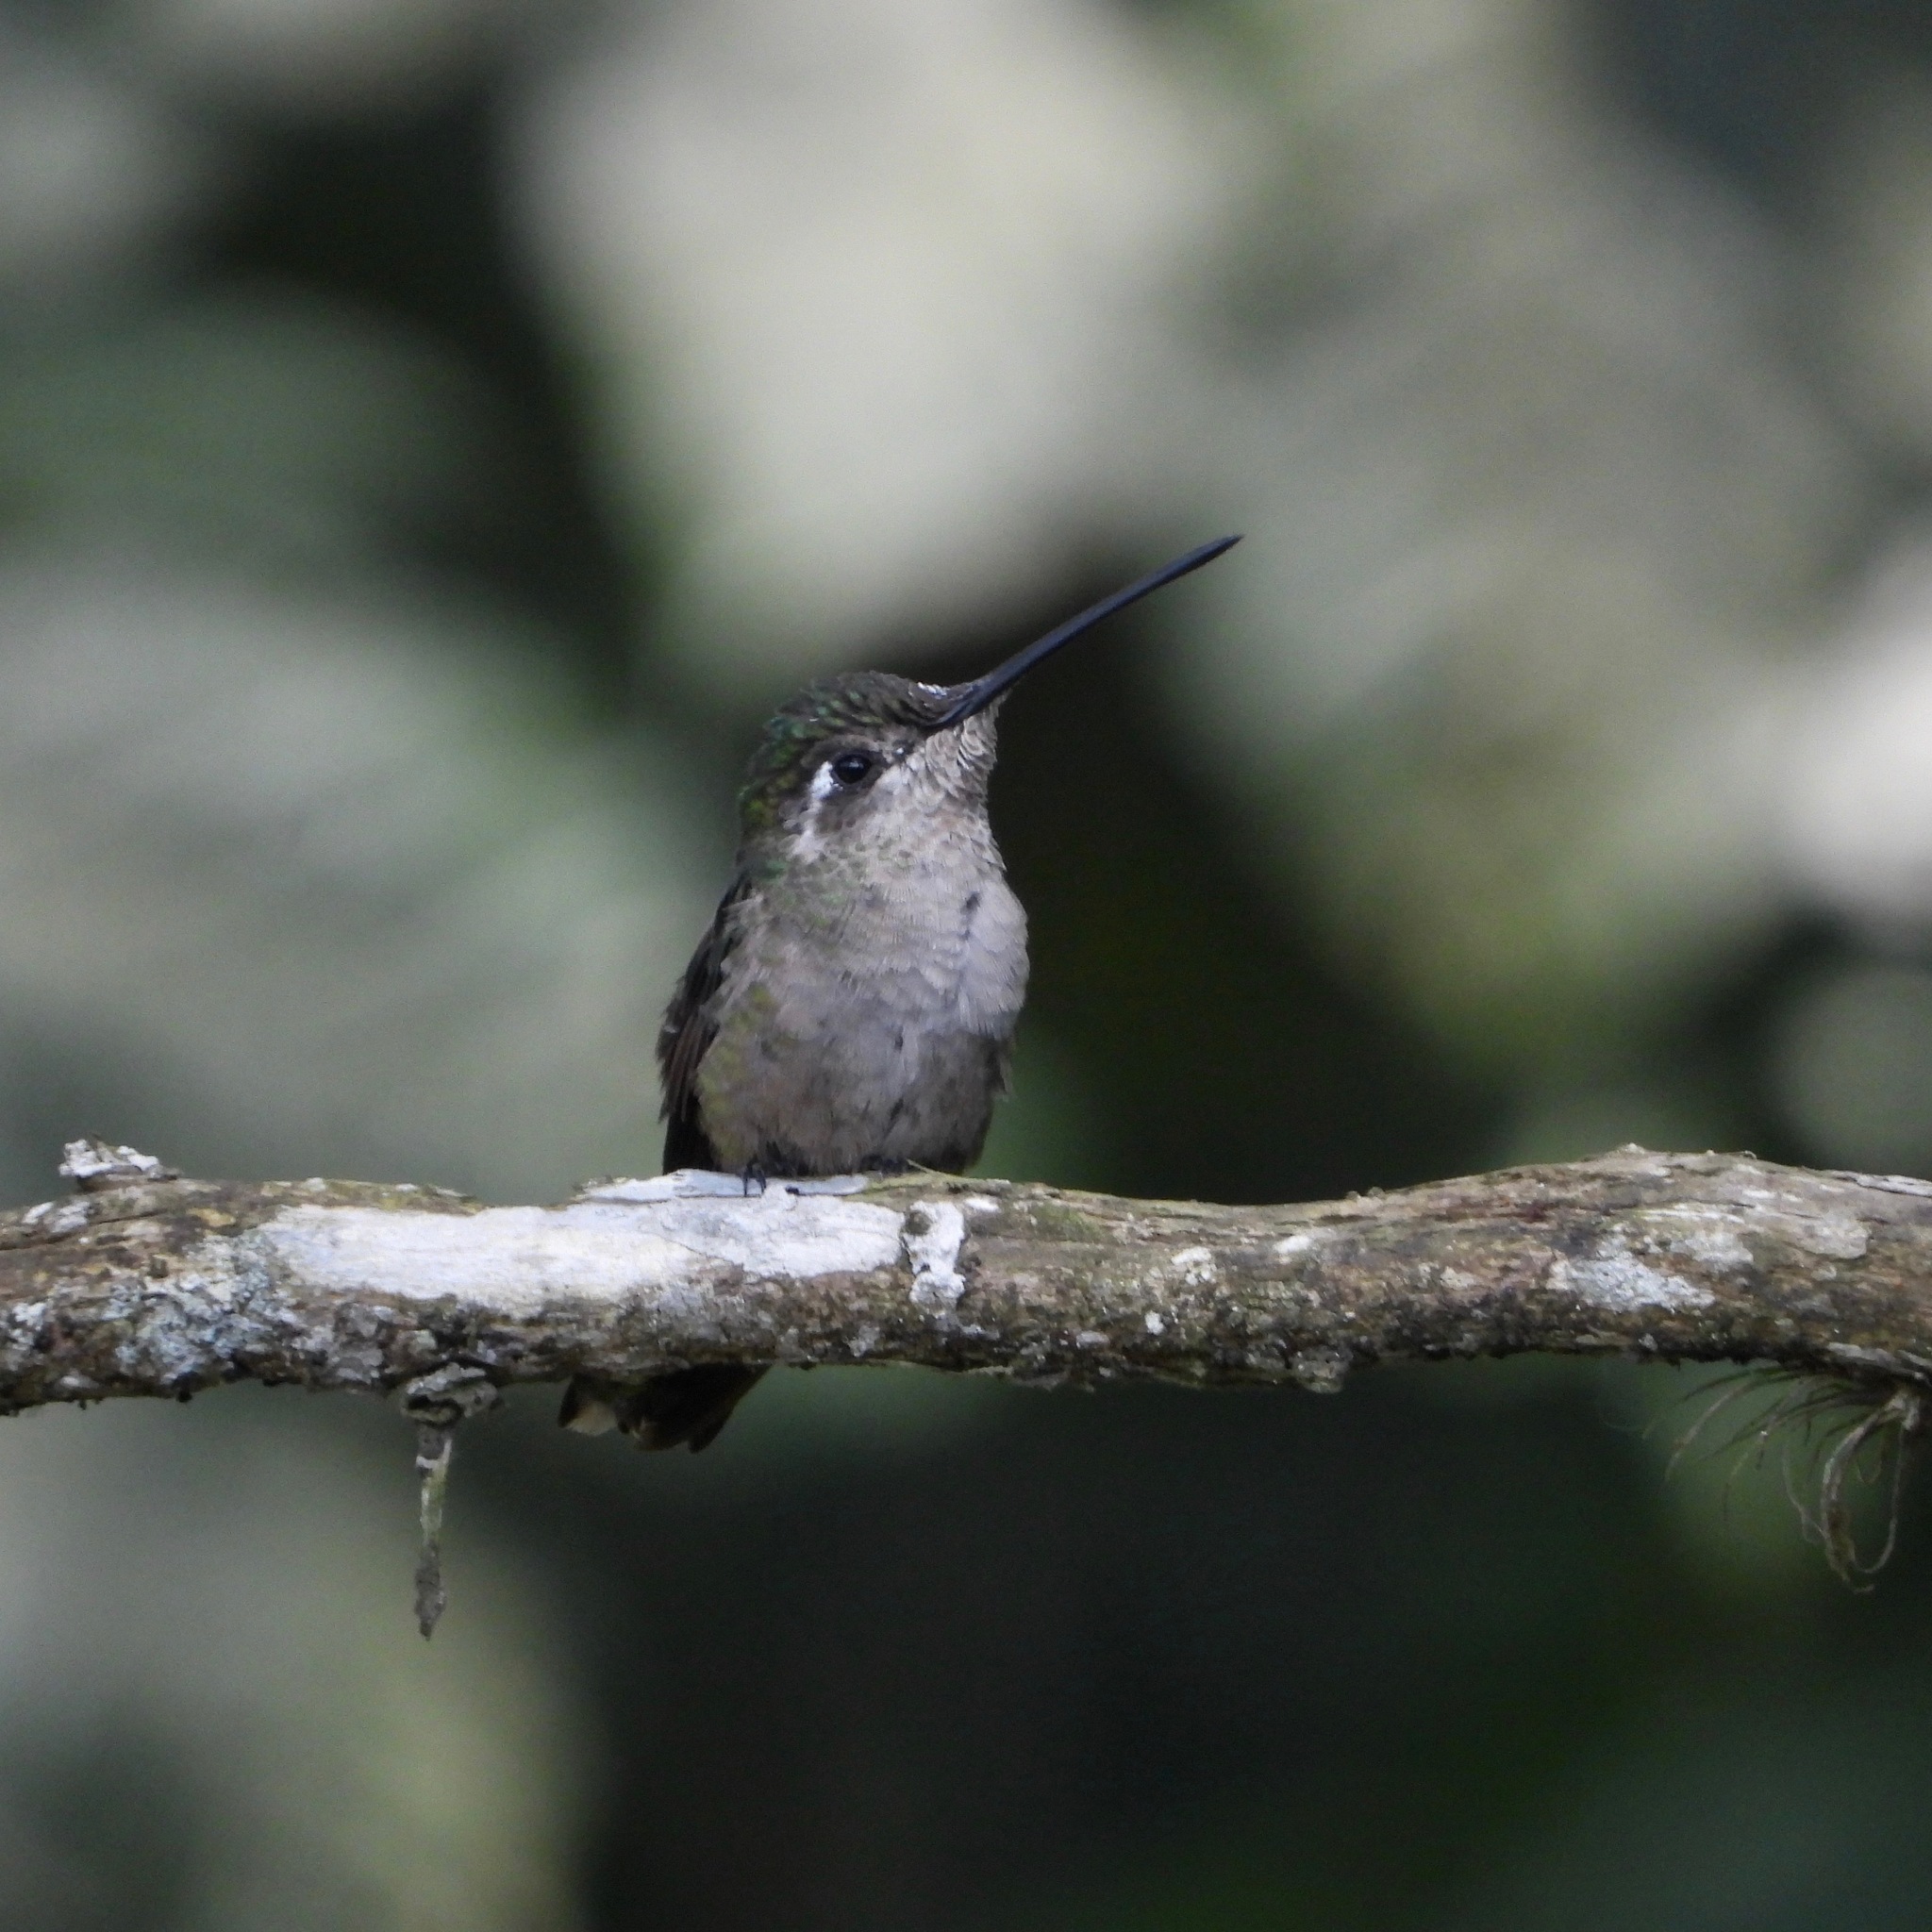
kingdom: Animalia
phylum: Chordata
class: Aves
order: Apodiformes
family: Trochilidae
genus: Eugenes
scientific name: Eugenes fulgens
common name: Magnificent hummingbird
